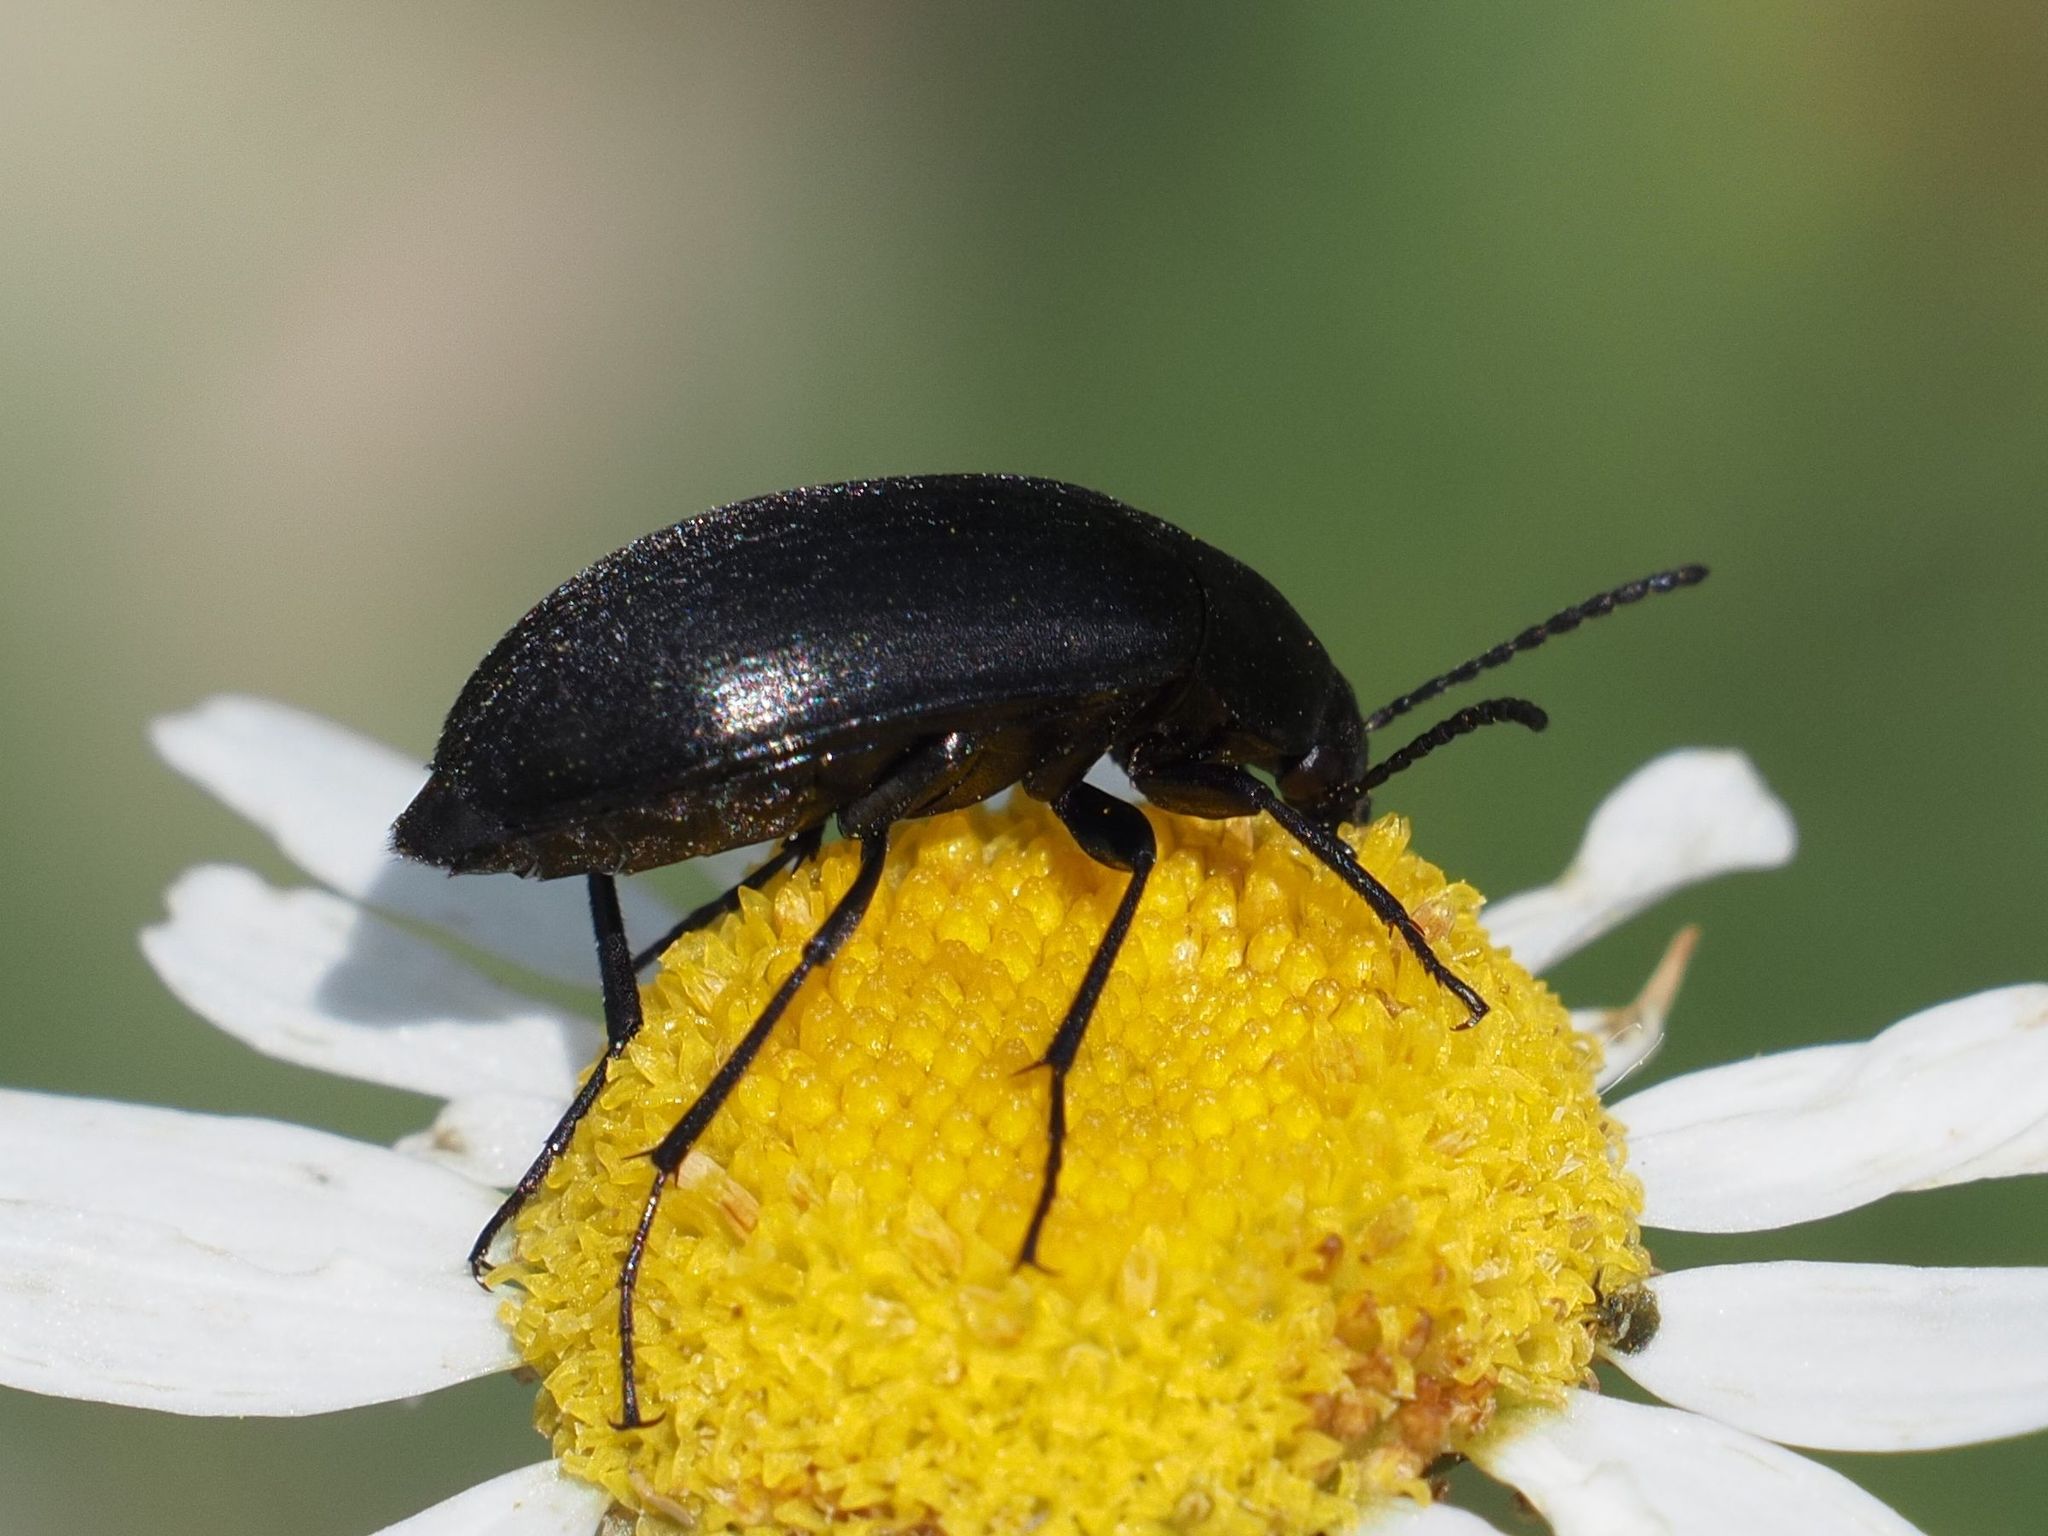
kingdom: Animalia
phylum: Arthropoda
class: Insecta
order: Coleoptera
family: Tenebrionidae
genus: Podonta
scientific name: Podonta nigrita
